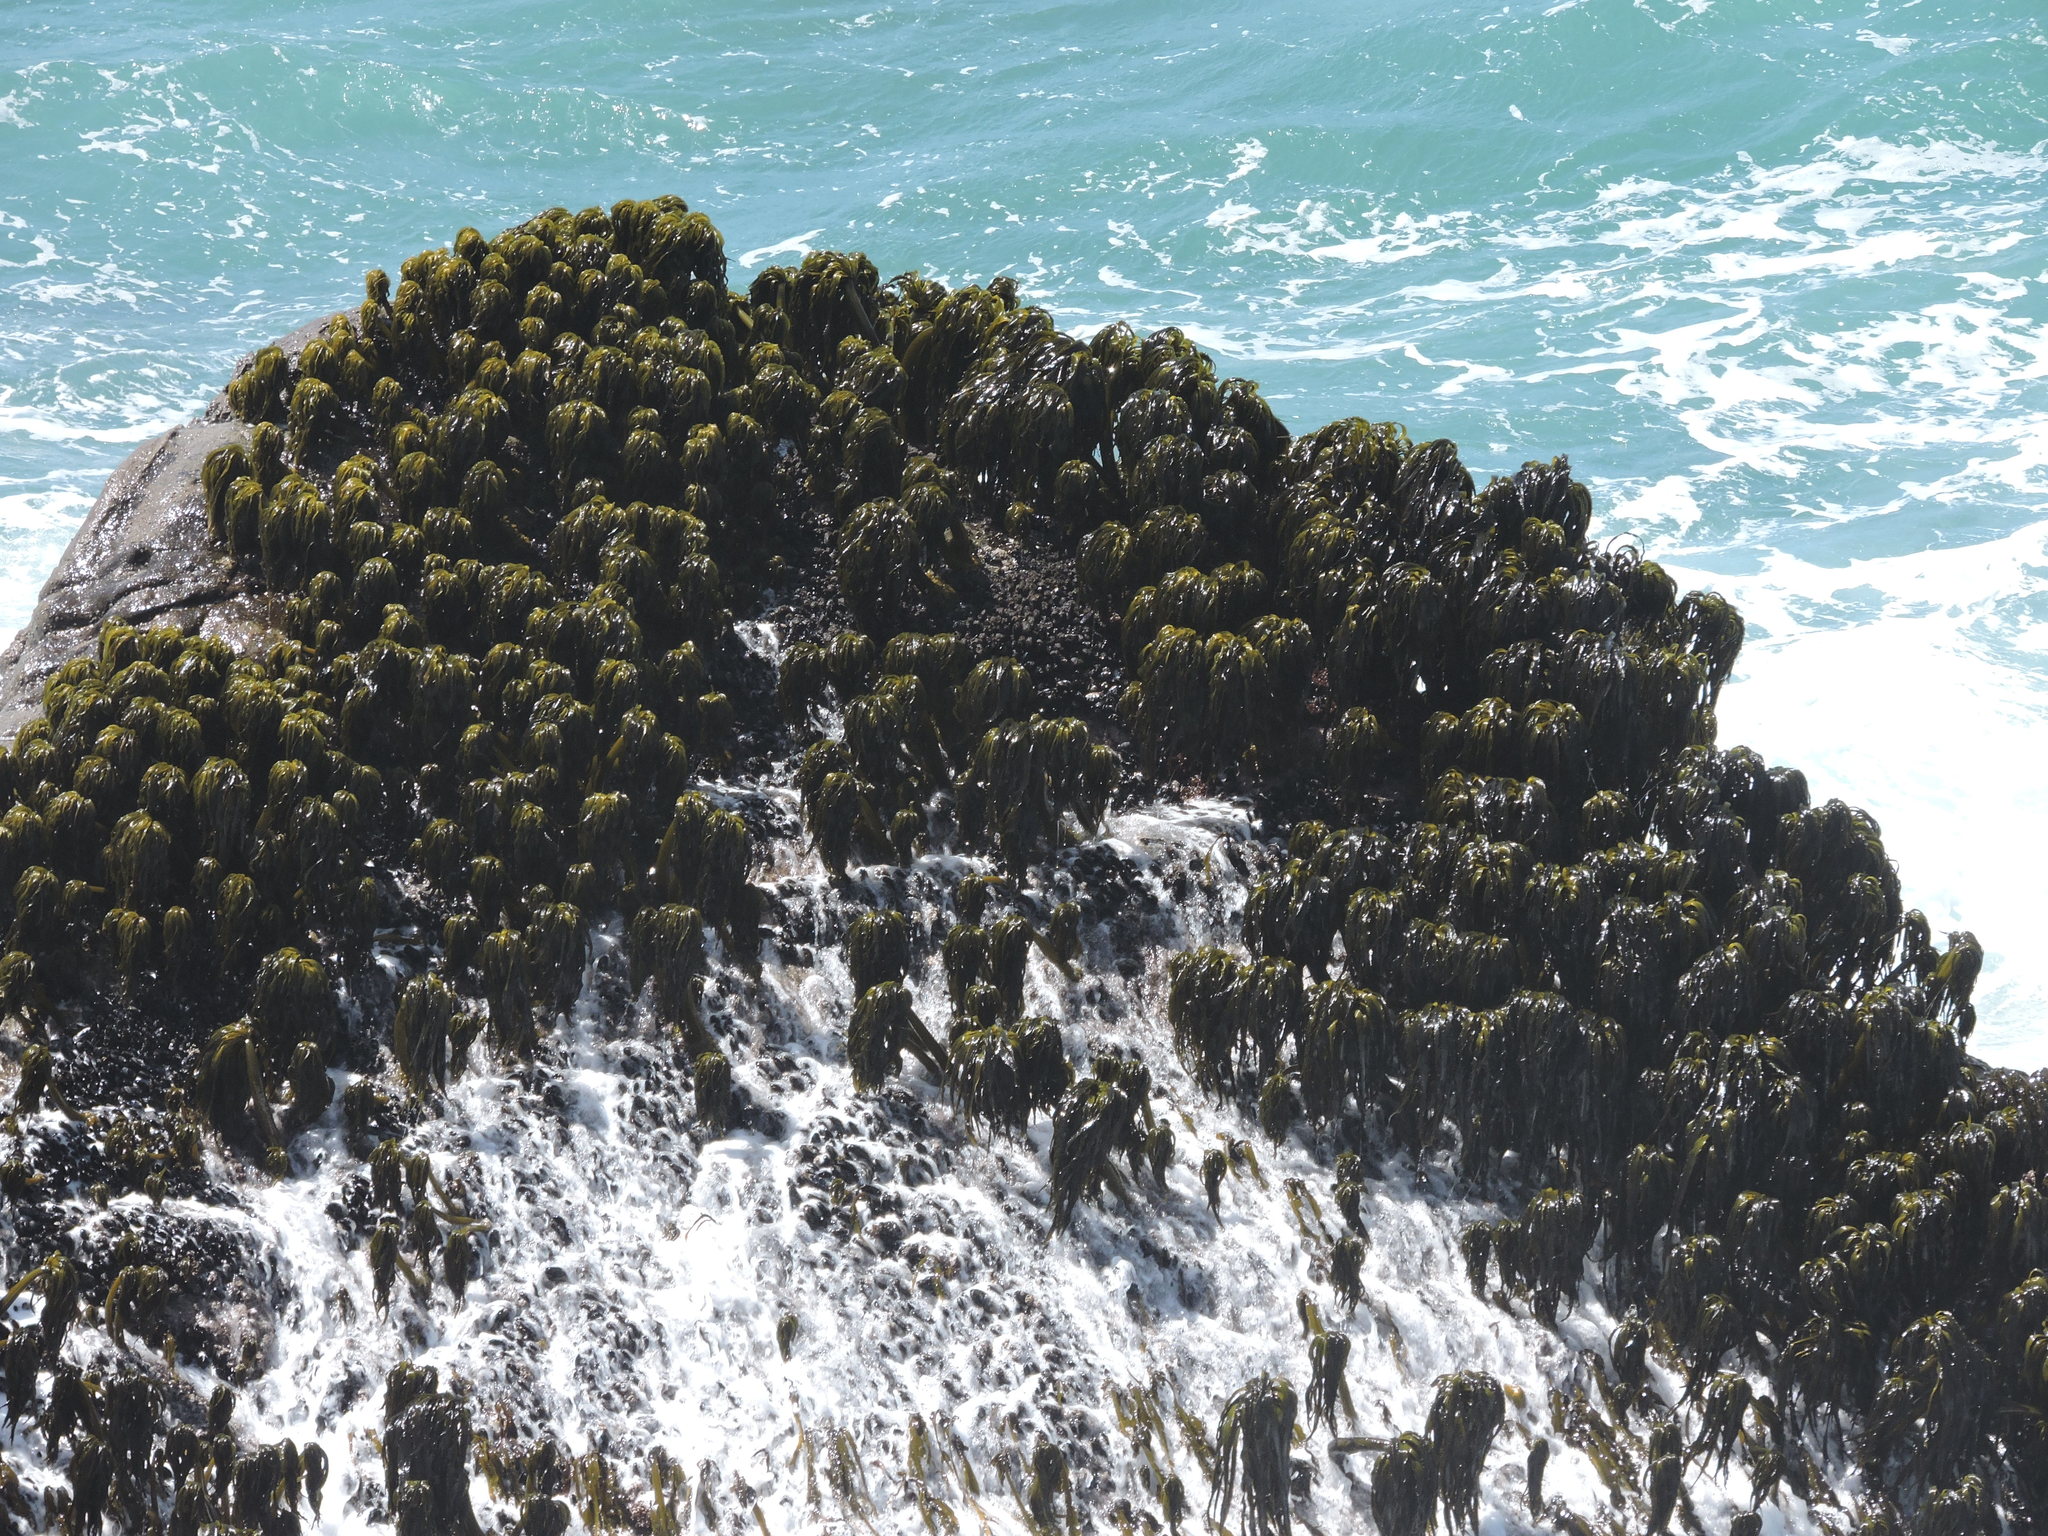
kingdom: Chromista
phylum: Ochrophyta
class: Phaeophyceae
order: Laminariales
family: Laminariaceae
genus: Postelsia
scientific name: Postelsia palmiformis
